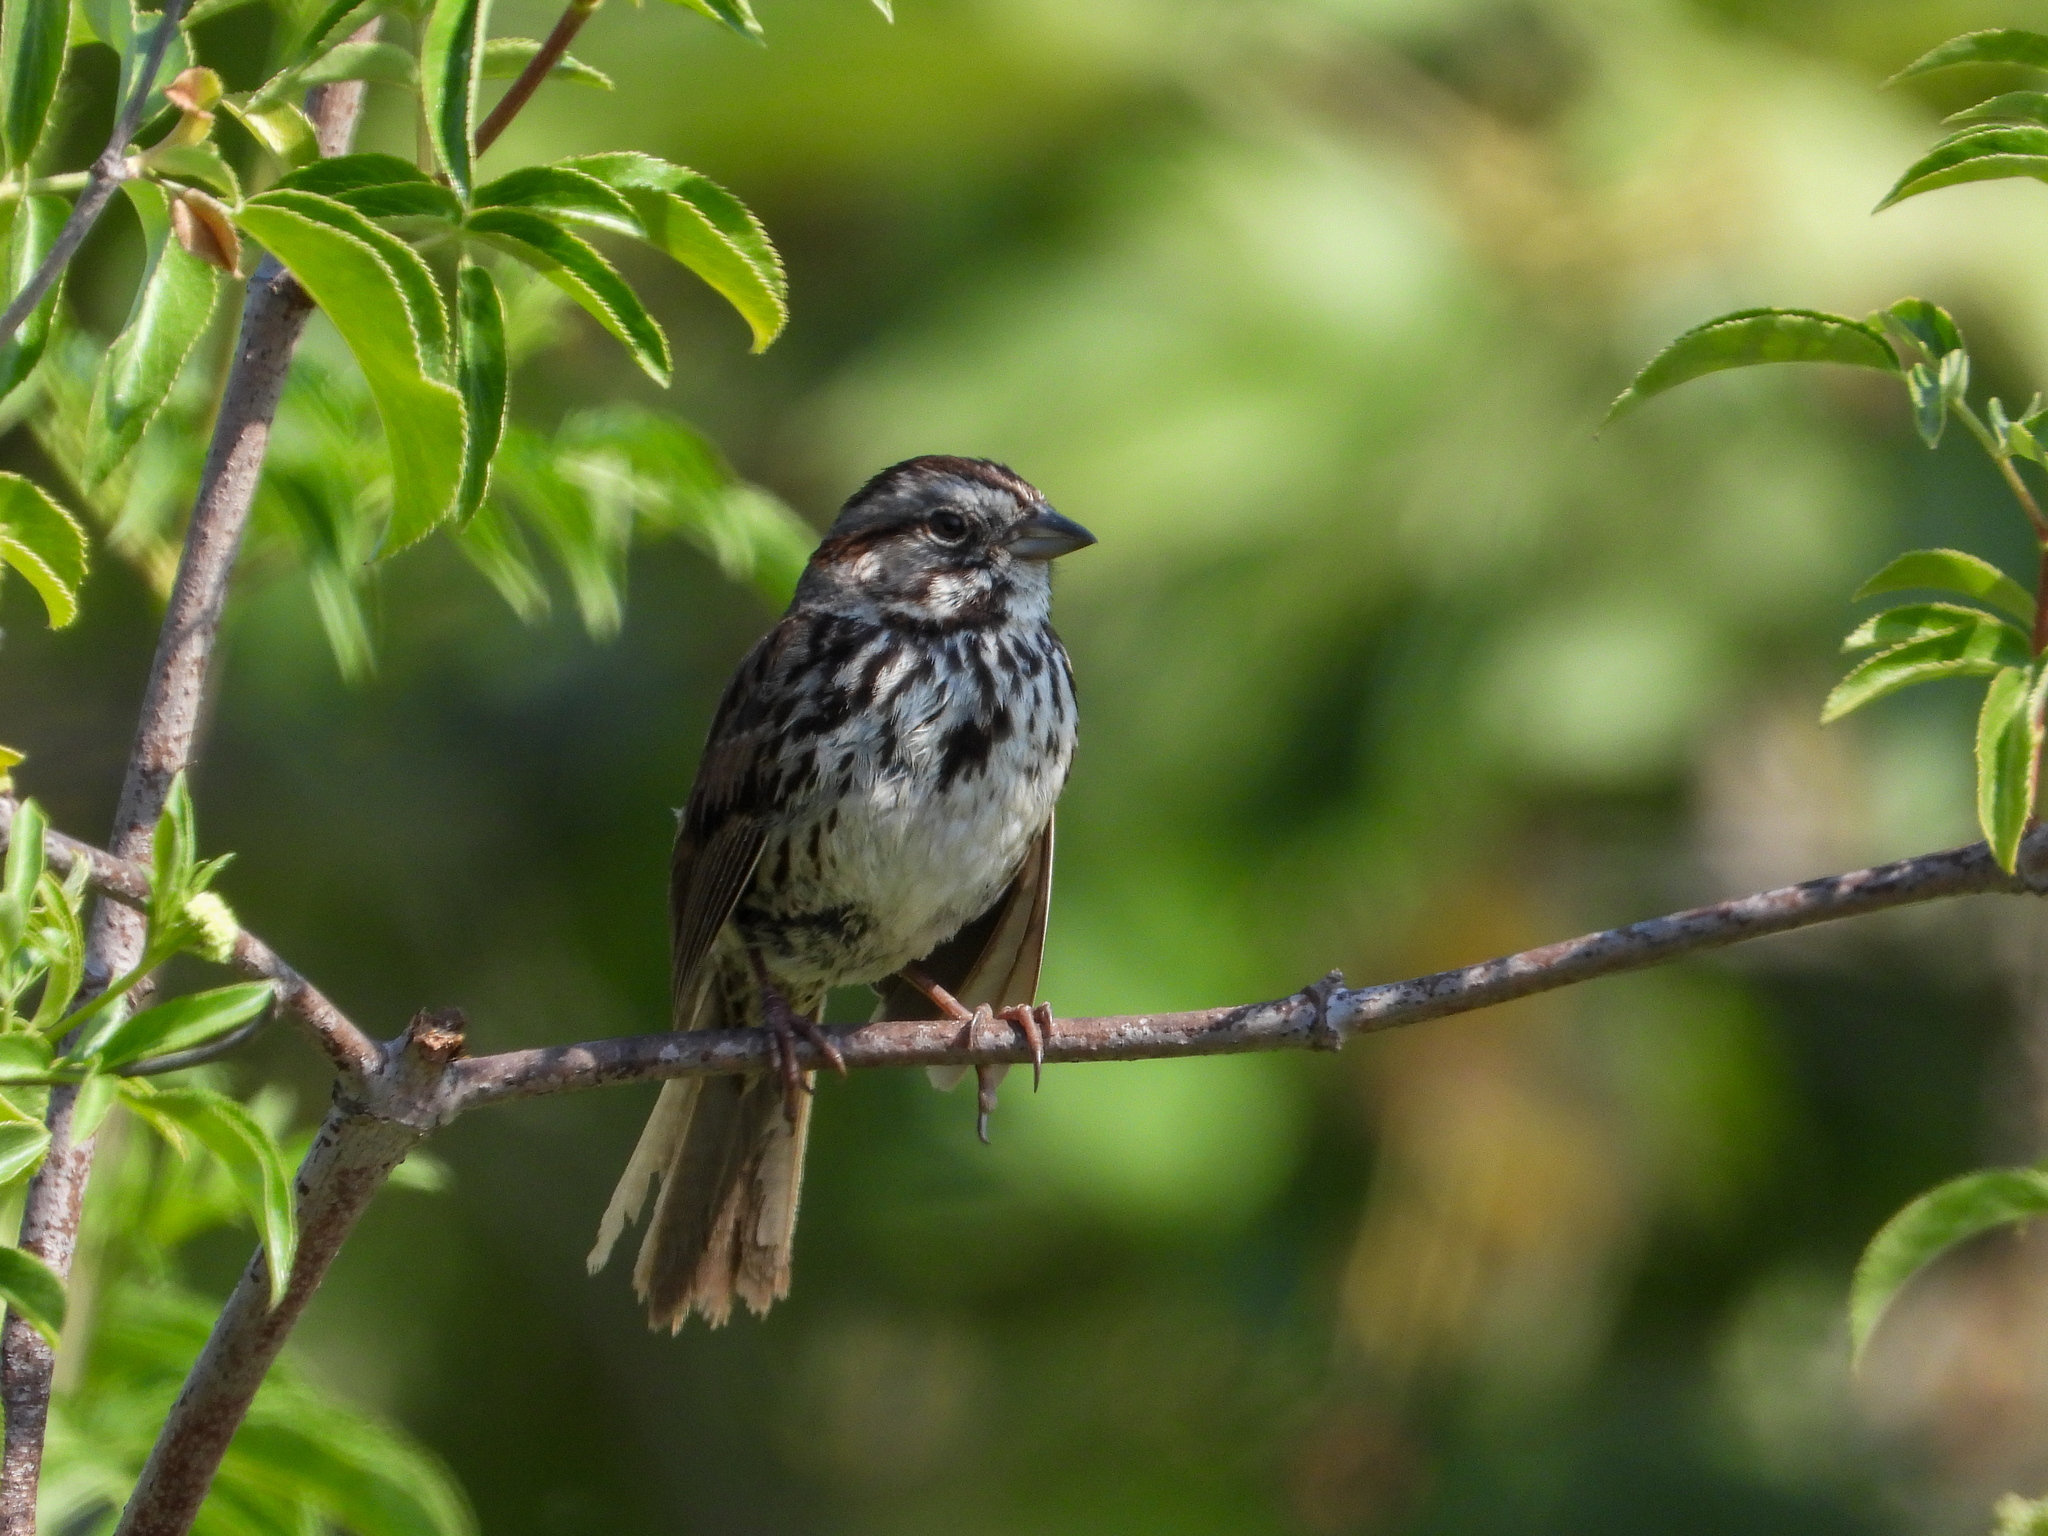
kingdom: Animalia
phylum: Chordata
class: Aves
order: Passeriformes
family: Passerellidae
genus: Melospiza
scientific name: Melospiza melodia
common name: Song sparrow
